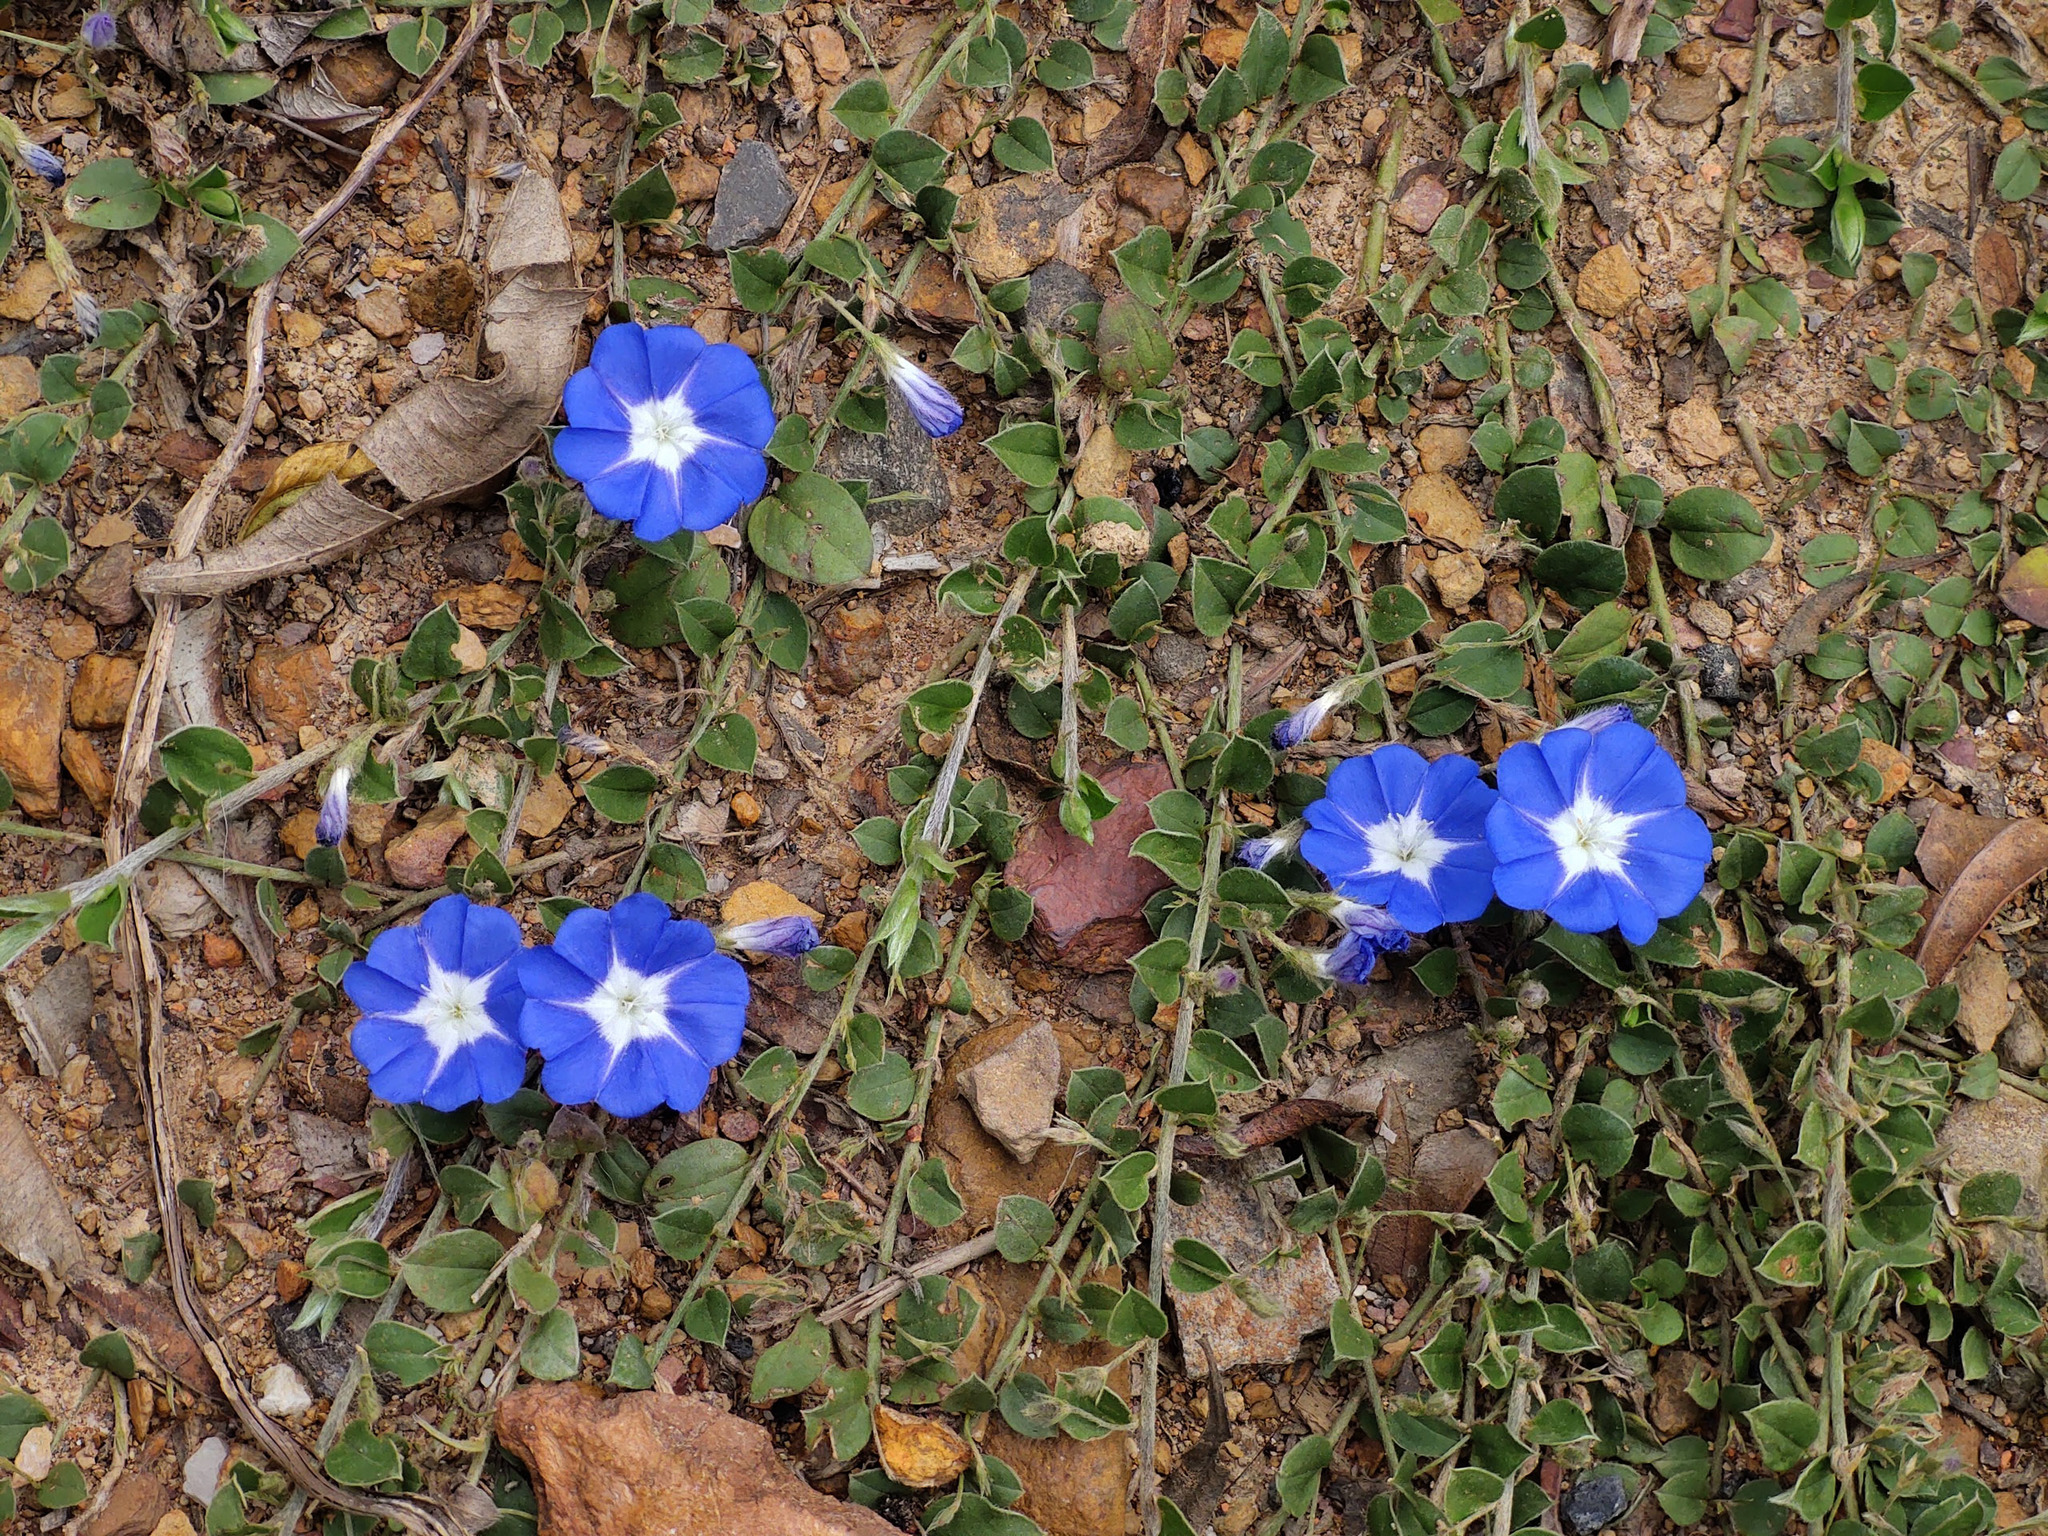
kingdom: Plantae
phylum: Tracheophyta
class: Magnoliopsida
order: Solanales
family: Convolvulaceae
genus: Evolvulus
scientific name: Evolvulus bogotensis
